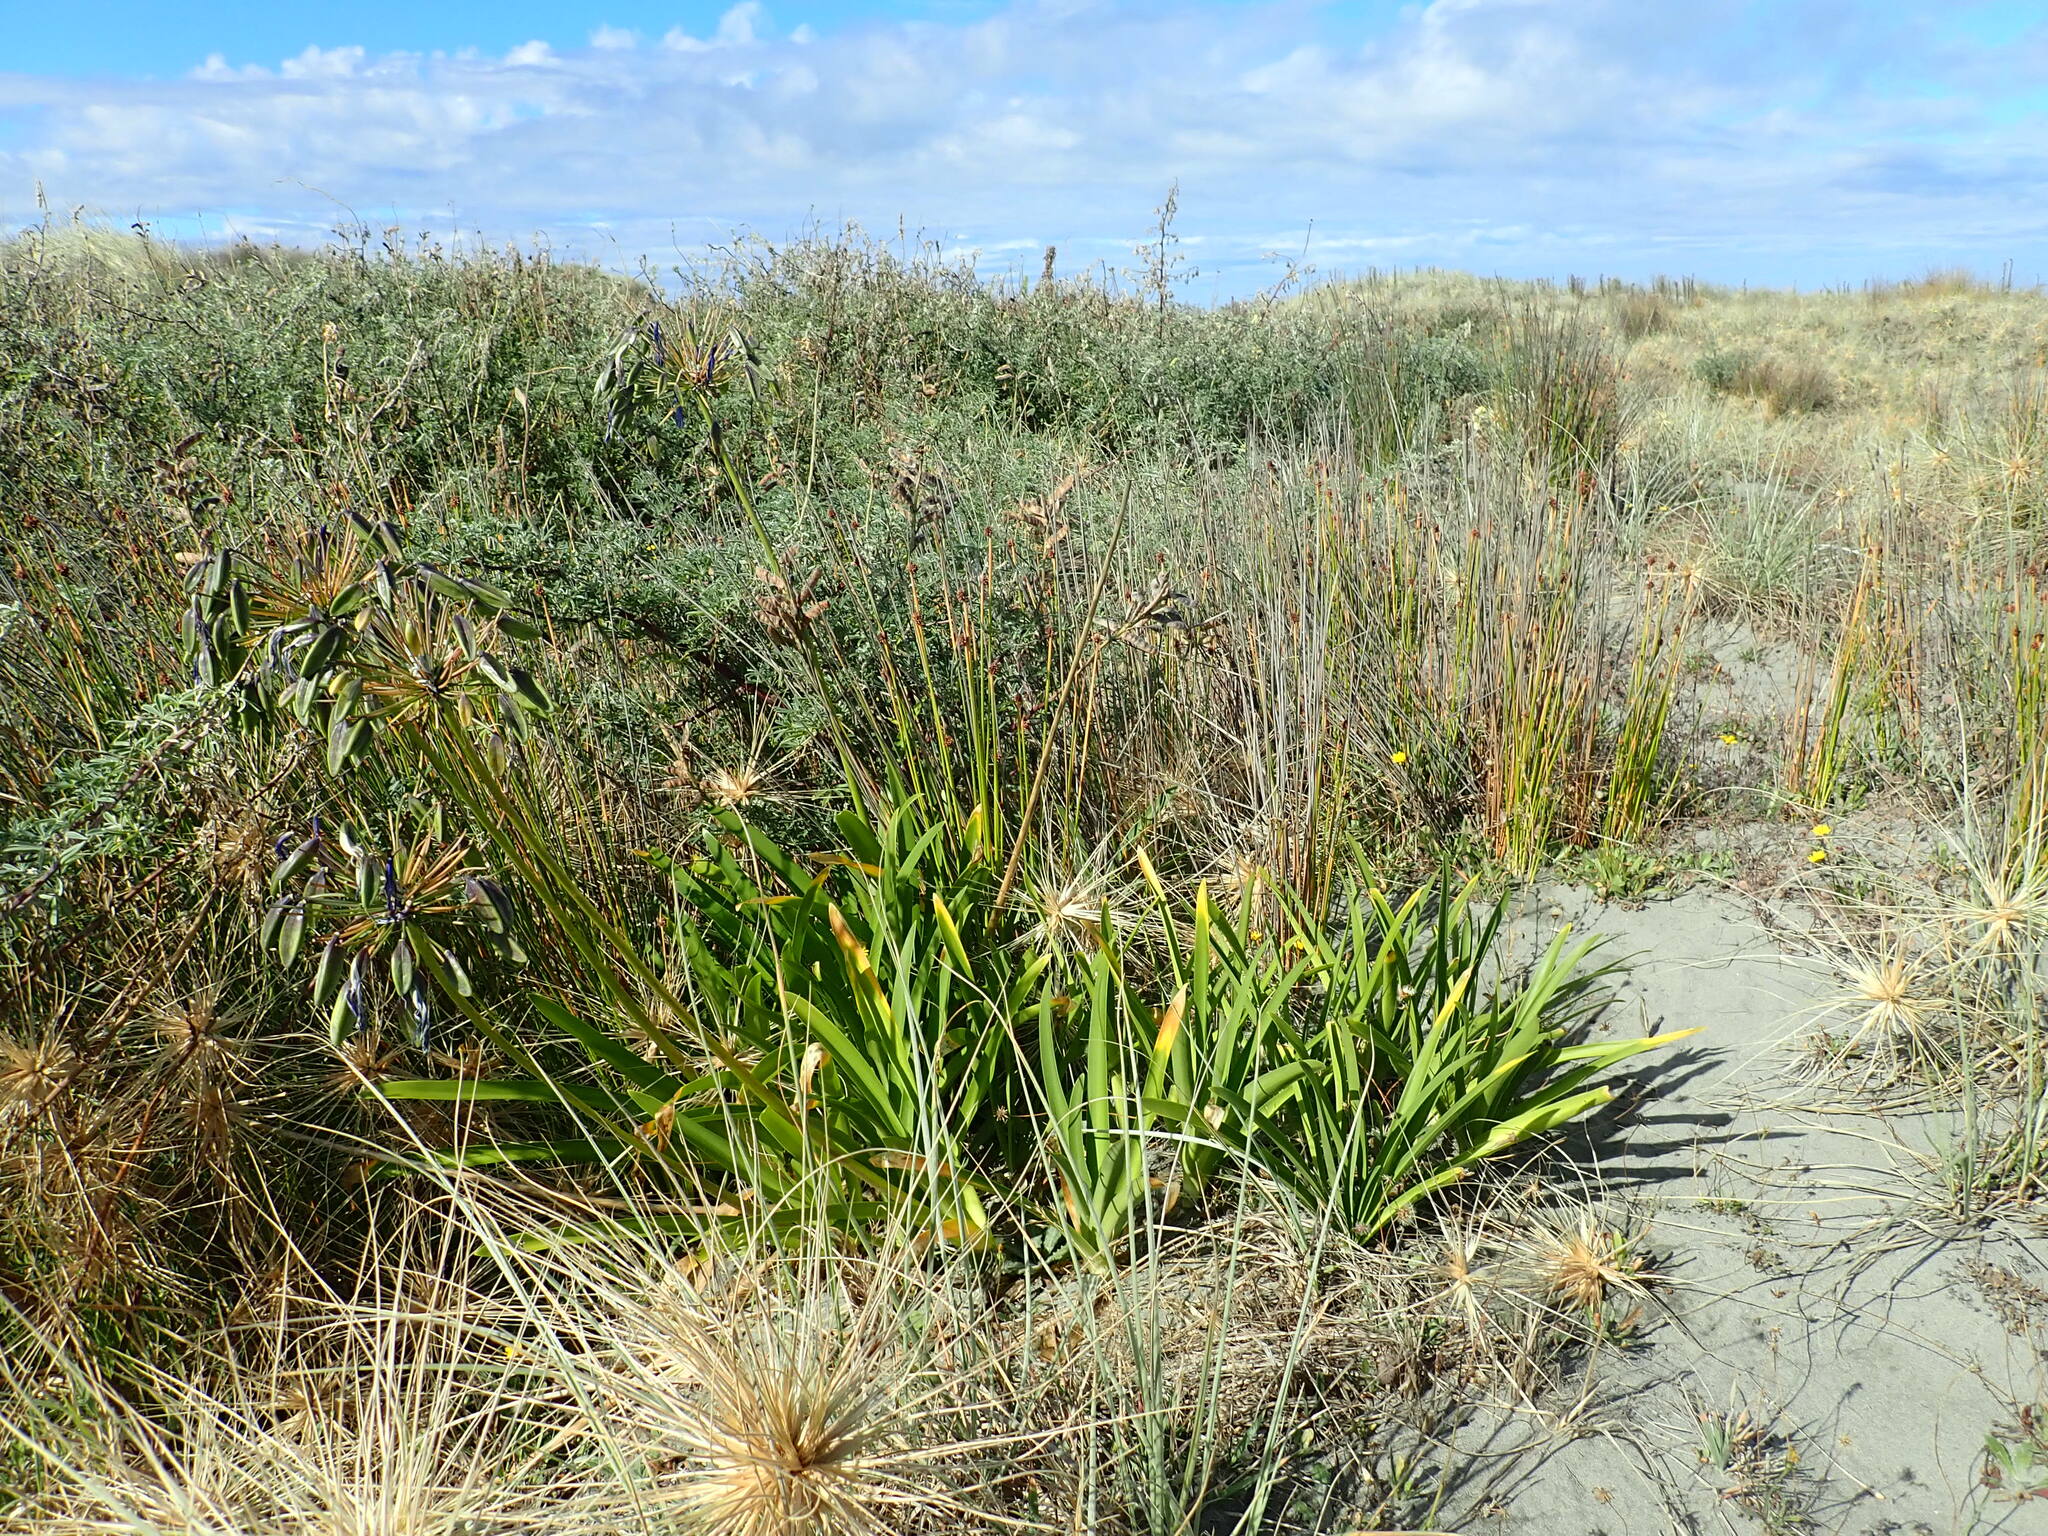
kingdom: Plantae
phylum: Tracheophyta
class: Liliopsida
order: Asparagales
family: Amaryllidaceae
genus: Agapanthus
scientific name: Agapanthus praecox
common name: African-lily
